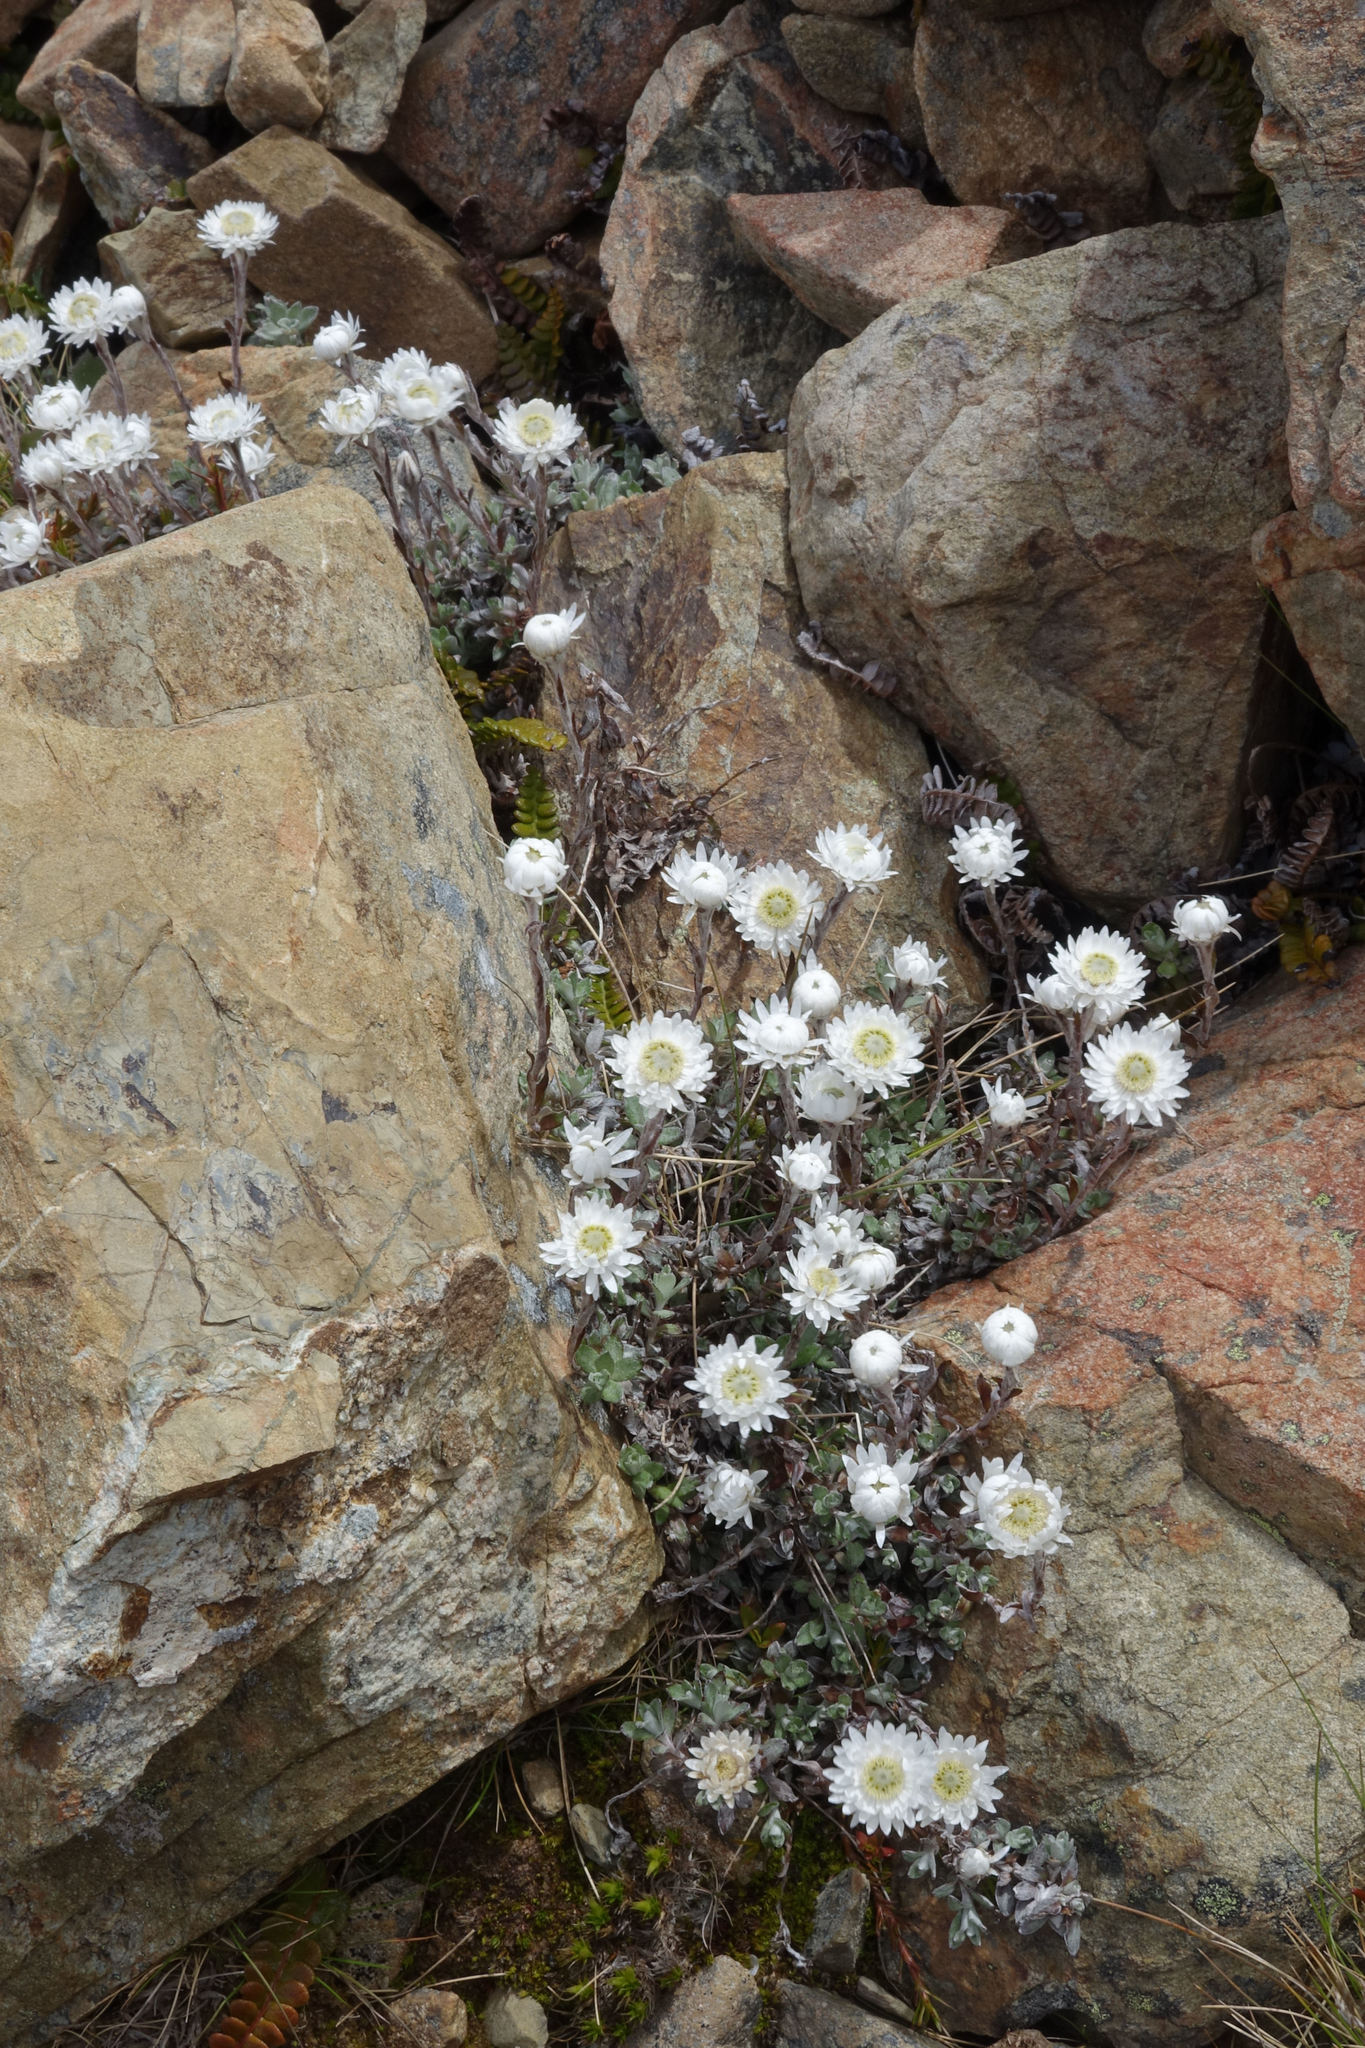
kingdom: Plantae
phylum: Tracheophyta
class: Magnoliopsida
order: Asterales
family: Asteraceae
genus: Anaphalioides
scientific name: Anaphalioides bellidioides
